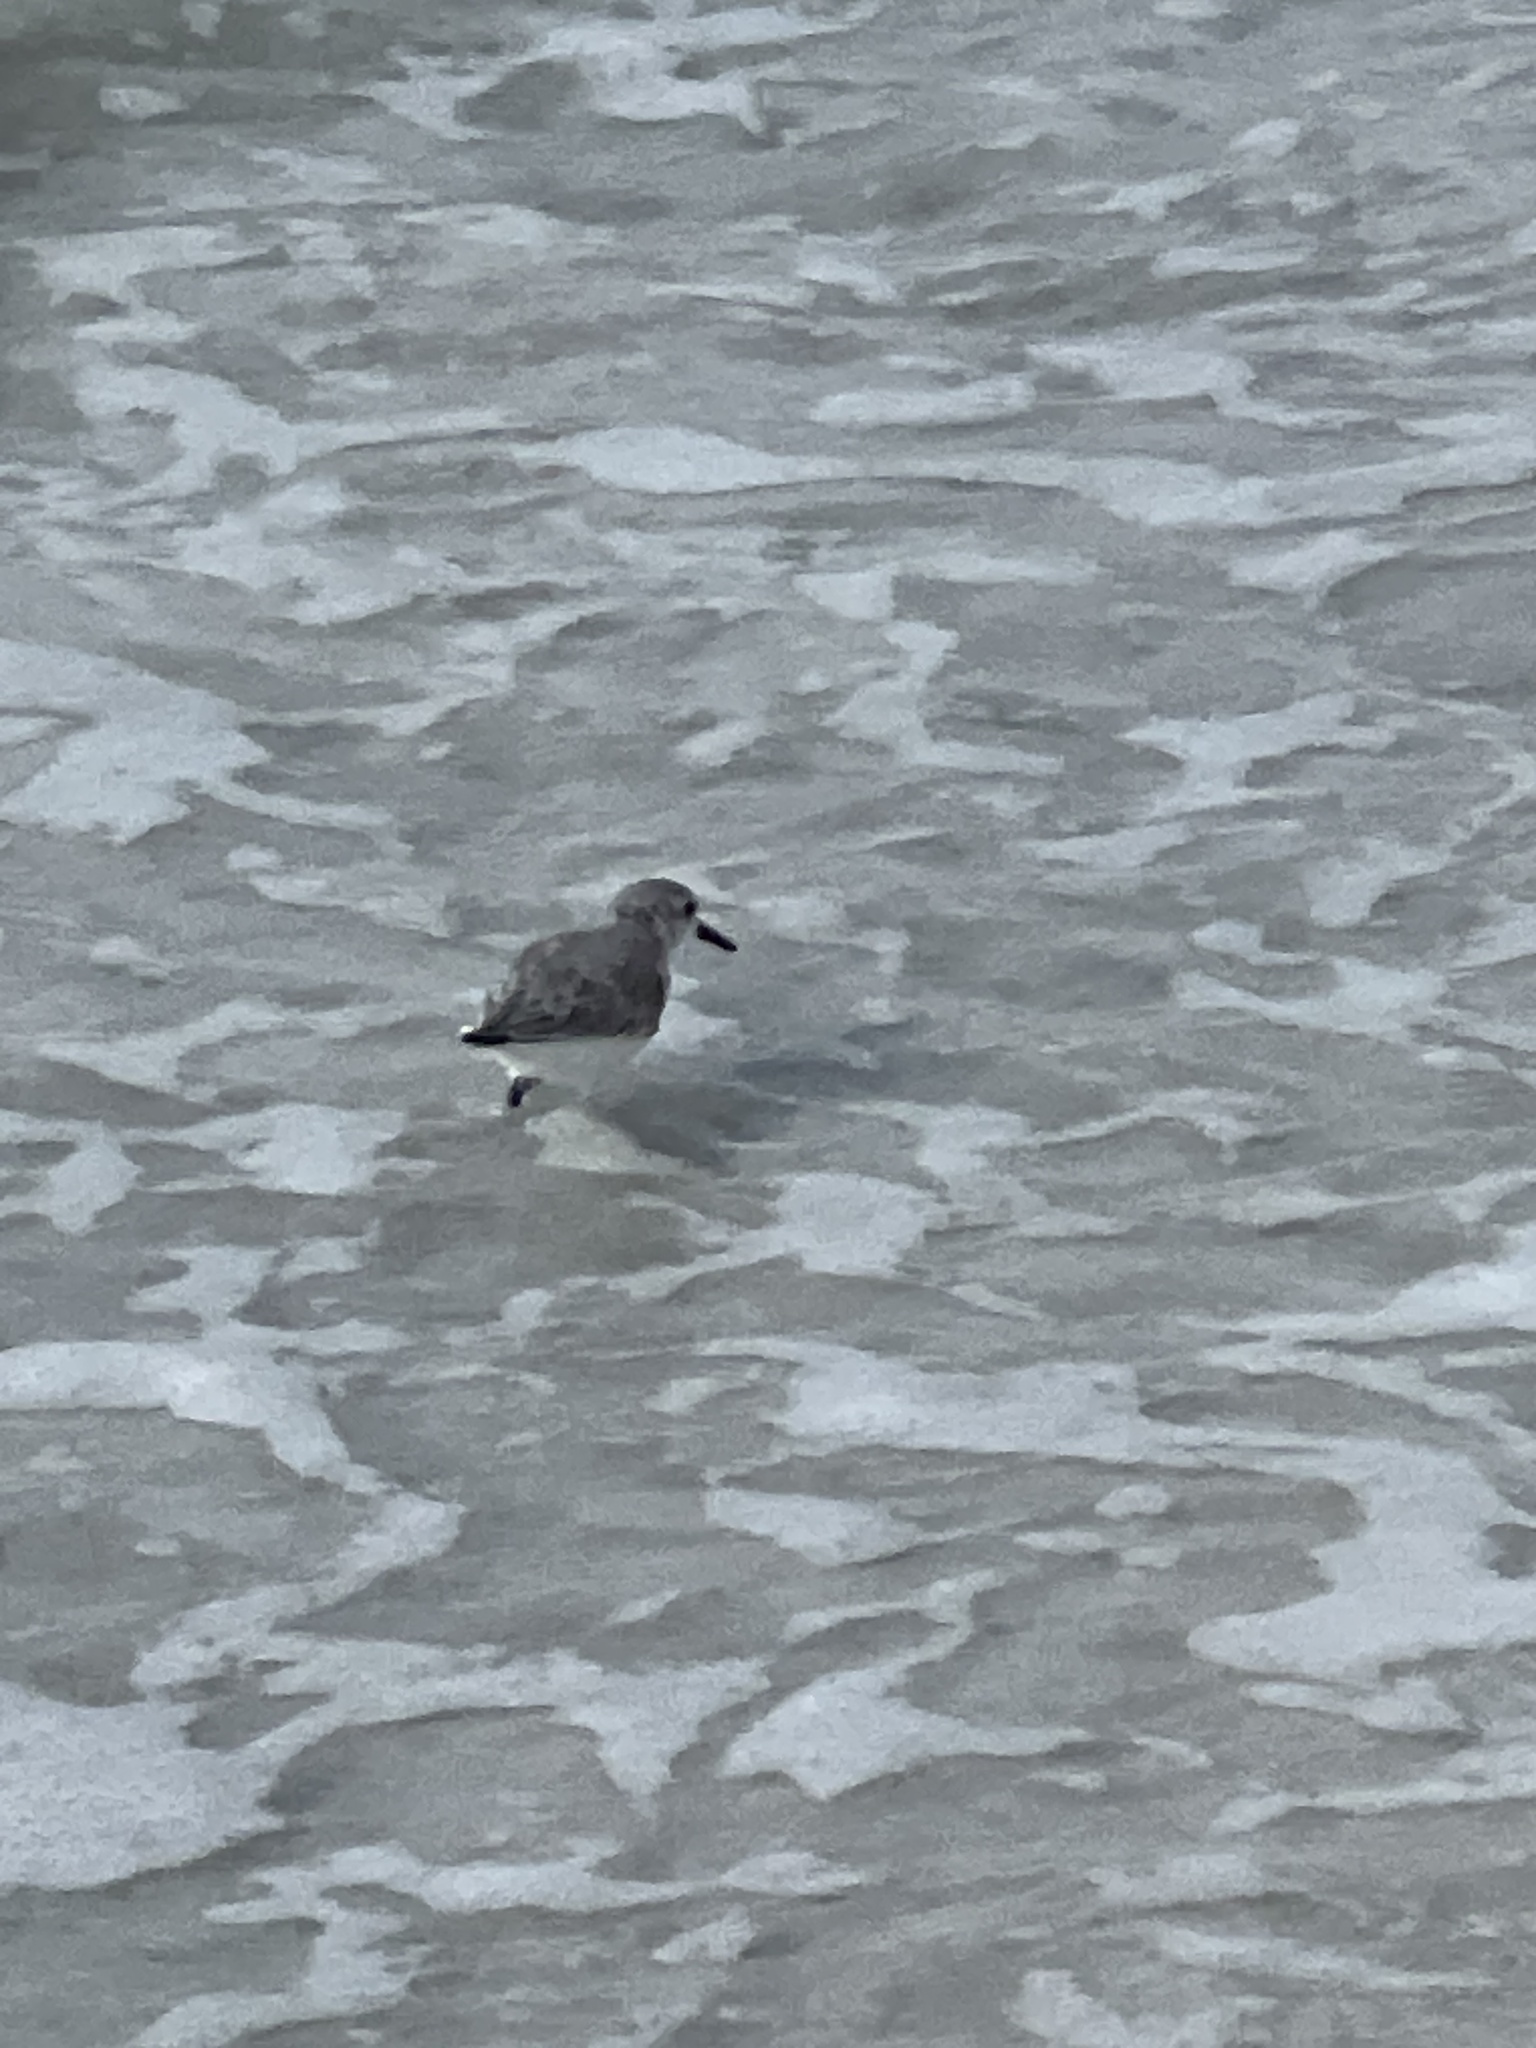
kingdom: Animalia
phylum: Chordata
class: Aves
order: Charadriiformes
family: Scolopacidae
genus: Calidris
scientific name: Calidris alba
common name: Sanderling
